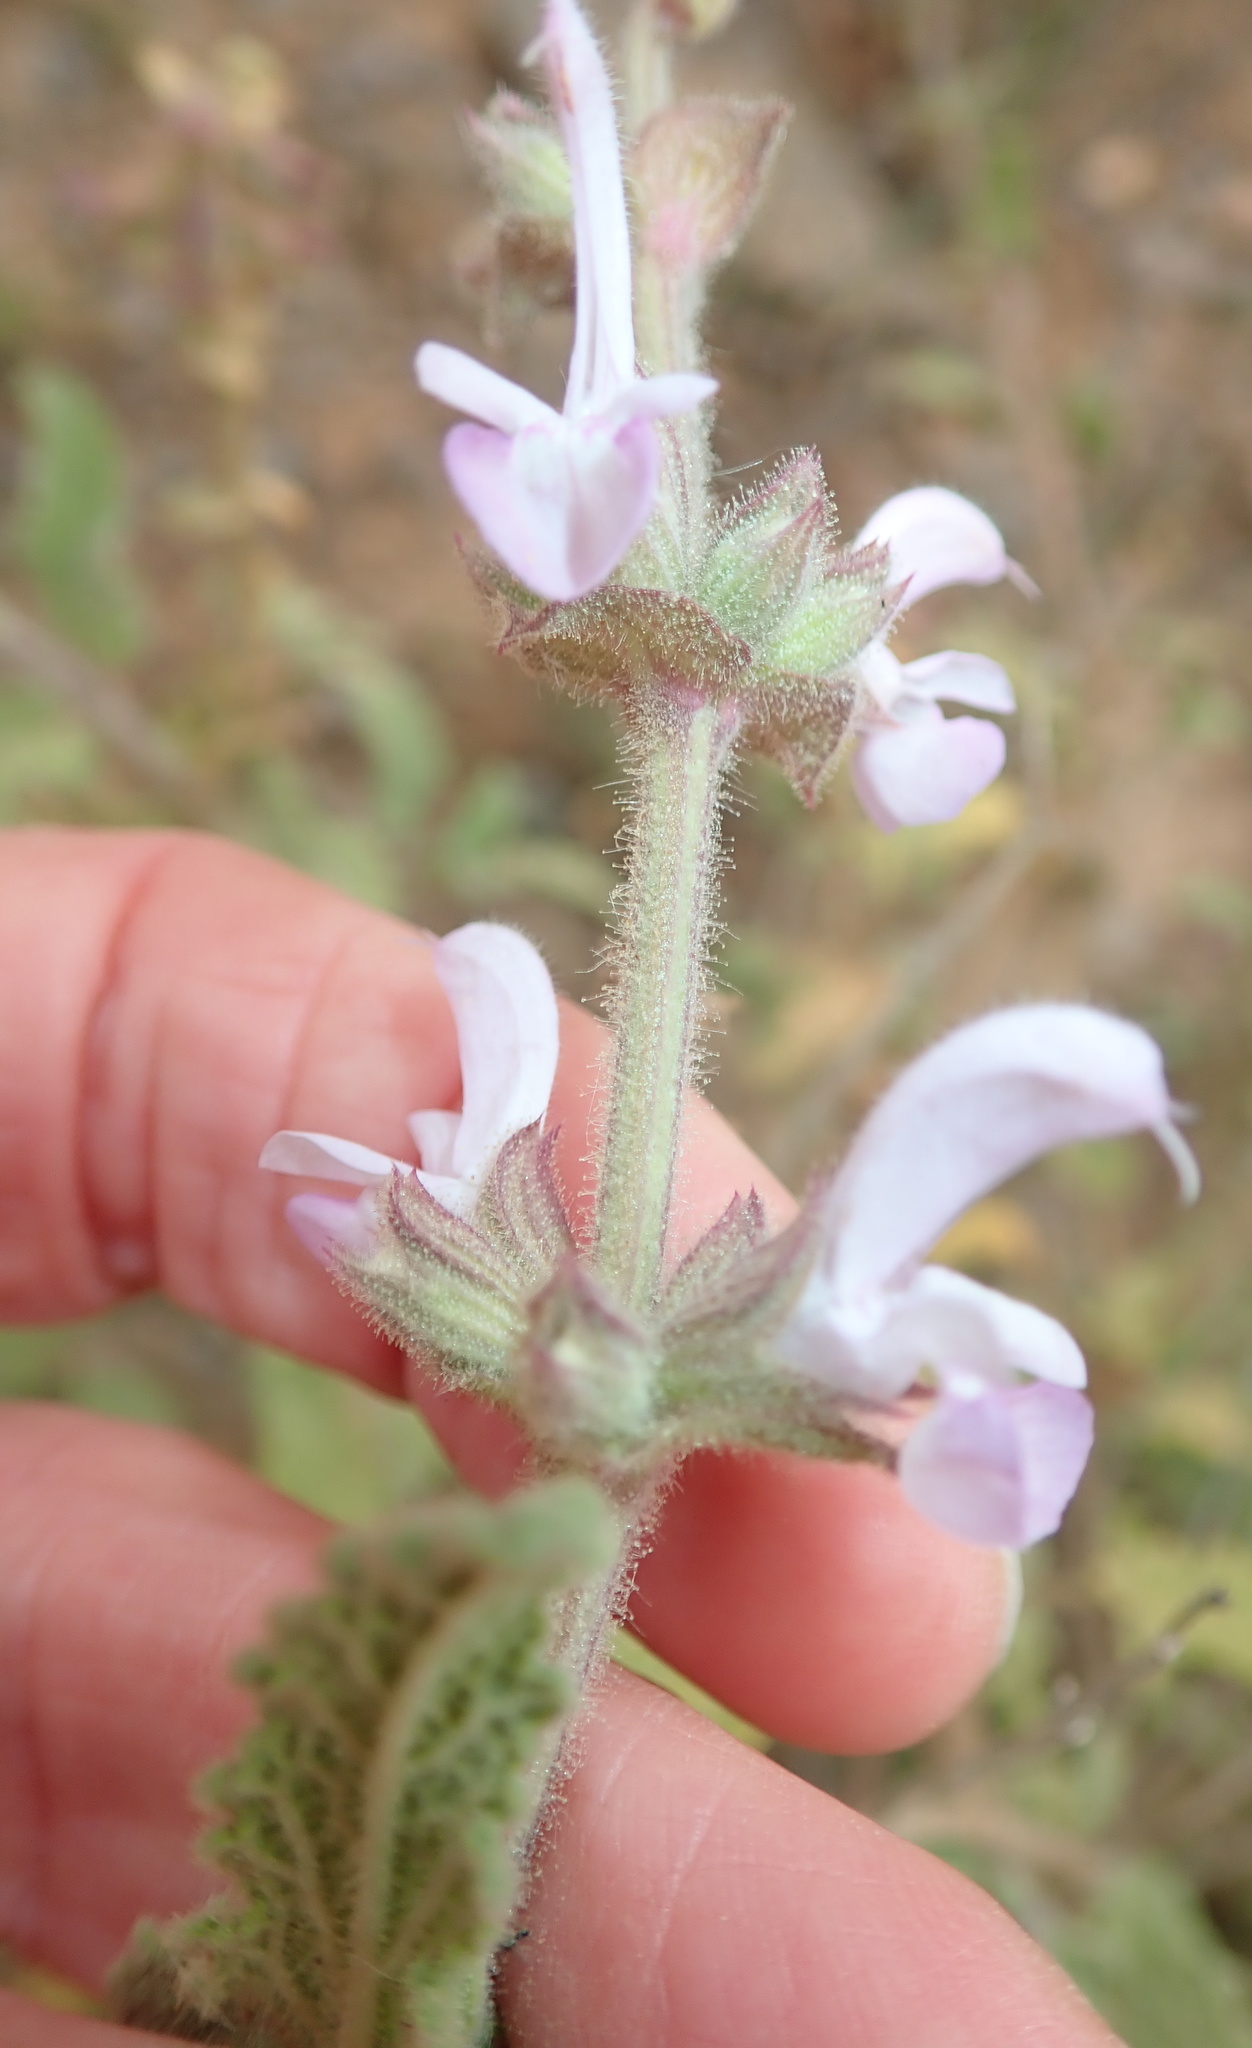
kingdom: Plantae
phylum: Tracheophyta
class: Magnoliopsida
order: Lamiales
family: Lamiaceae
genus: Salvia
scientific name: Salvia disermas
